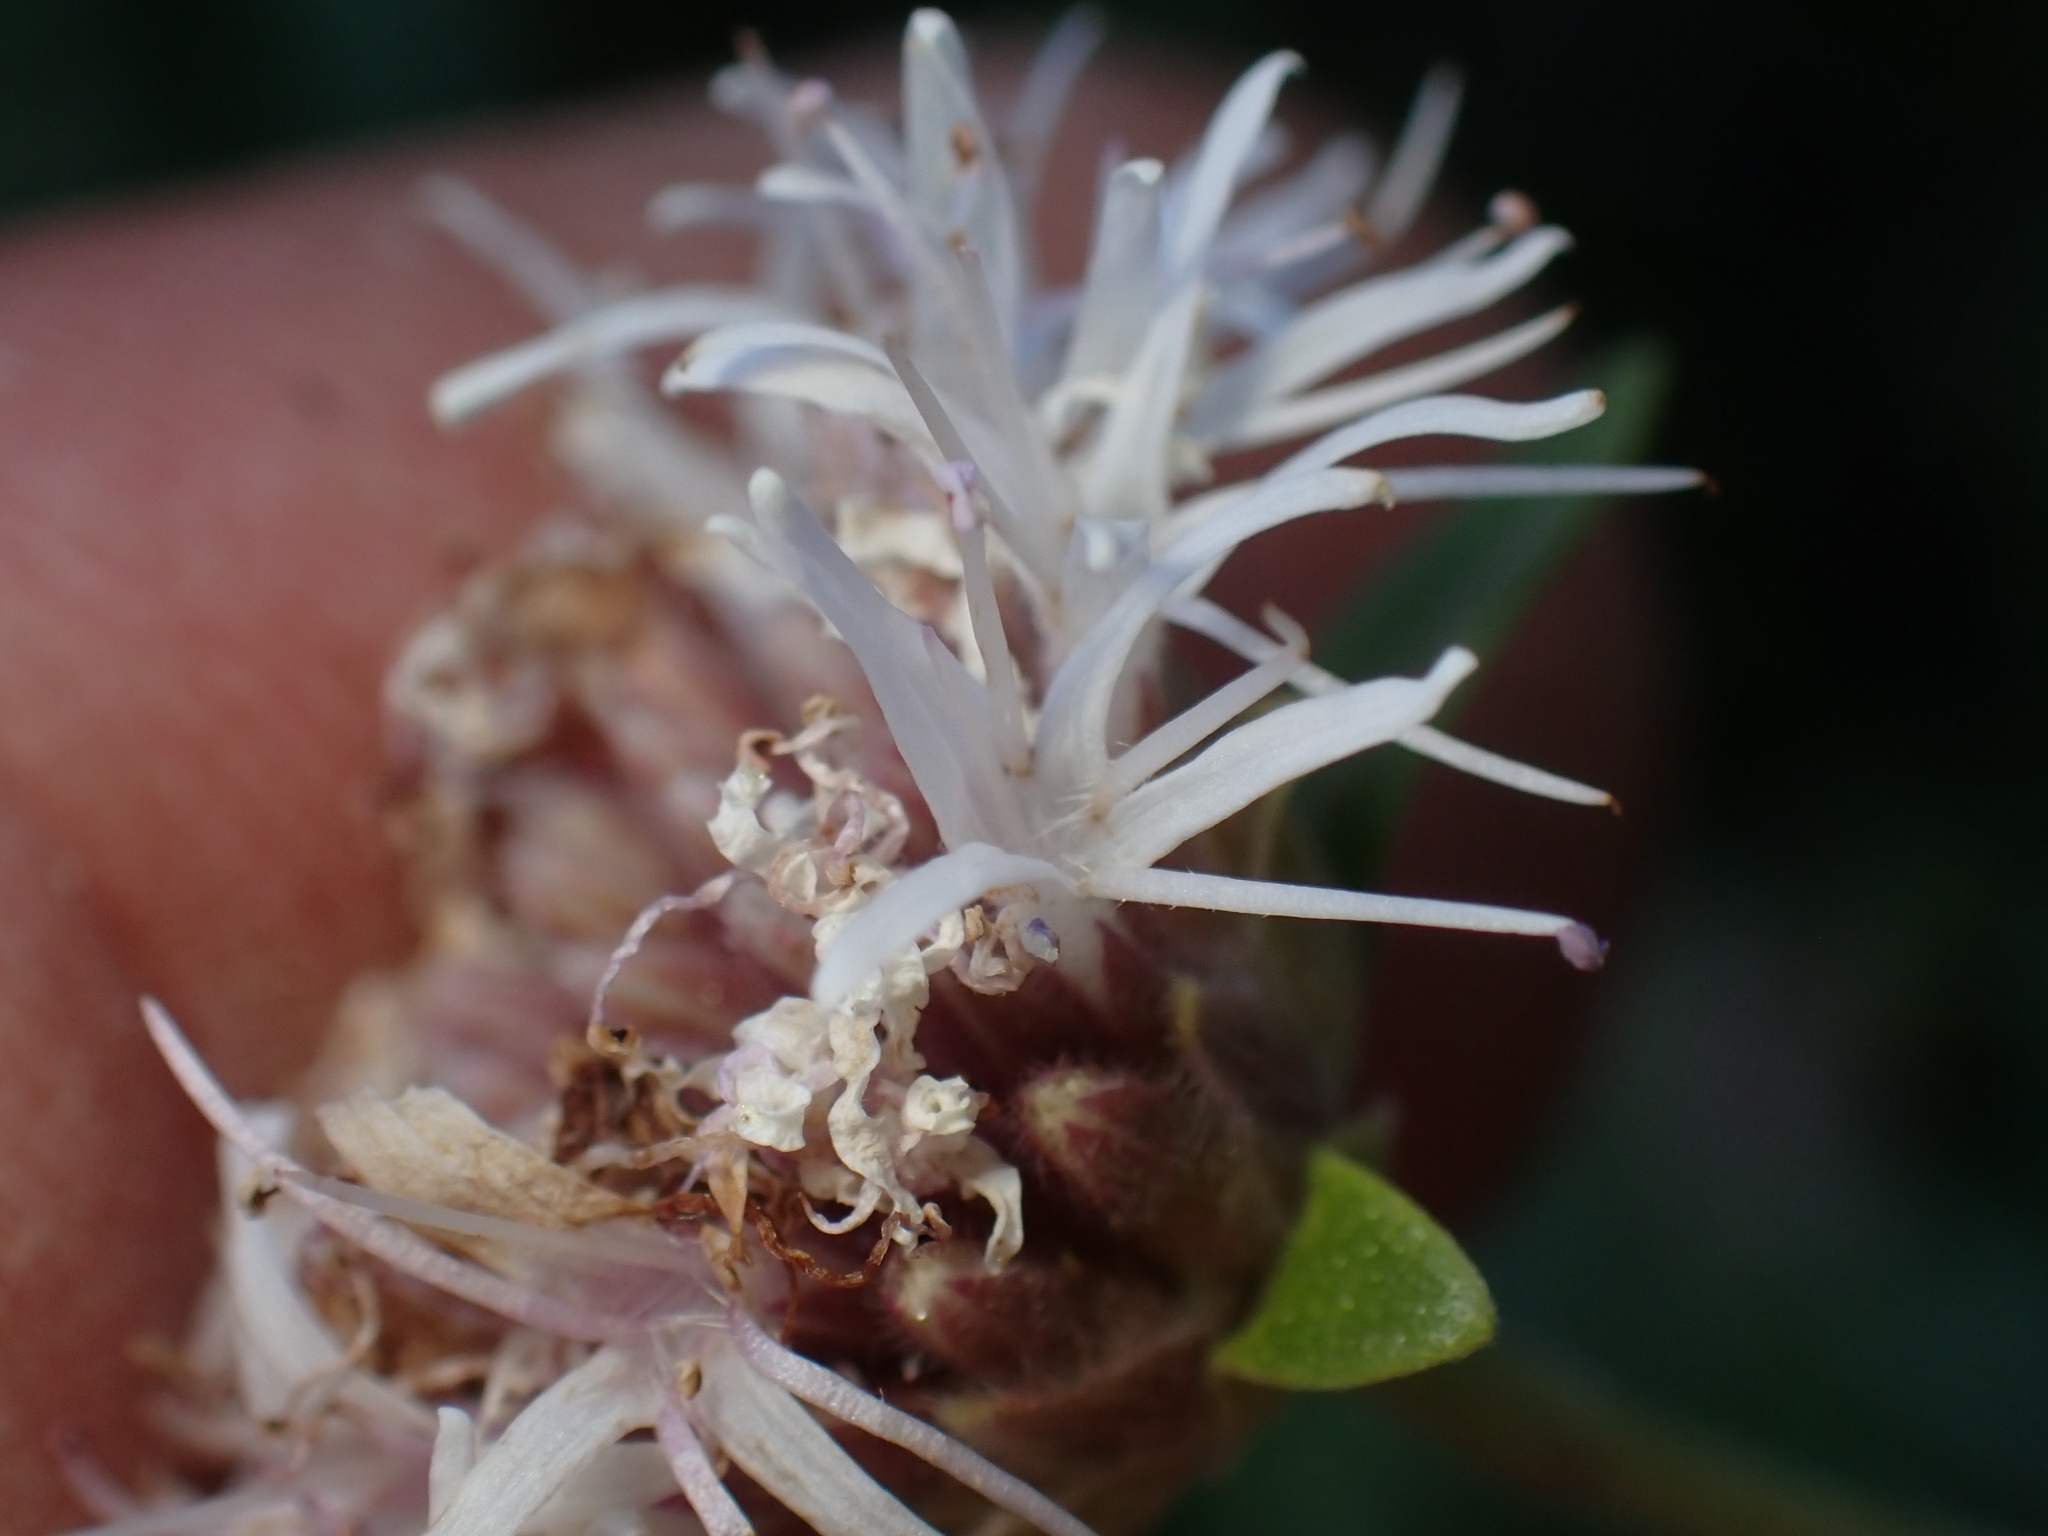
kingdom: Plantae
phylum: Tracheophyta
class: Magnoliopsida
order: Lamiales
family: Lamiaceae
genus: Monardella
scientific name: Monardella lagunensis
